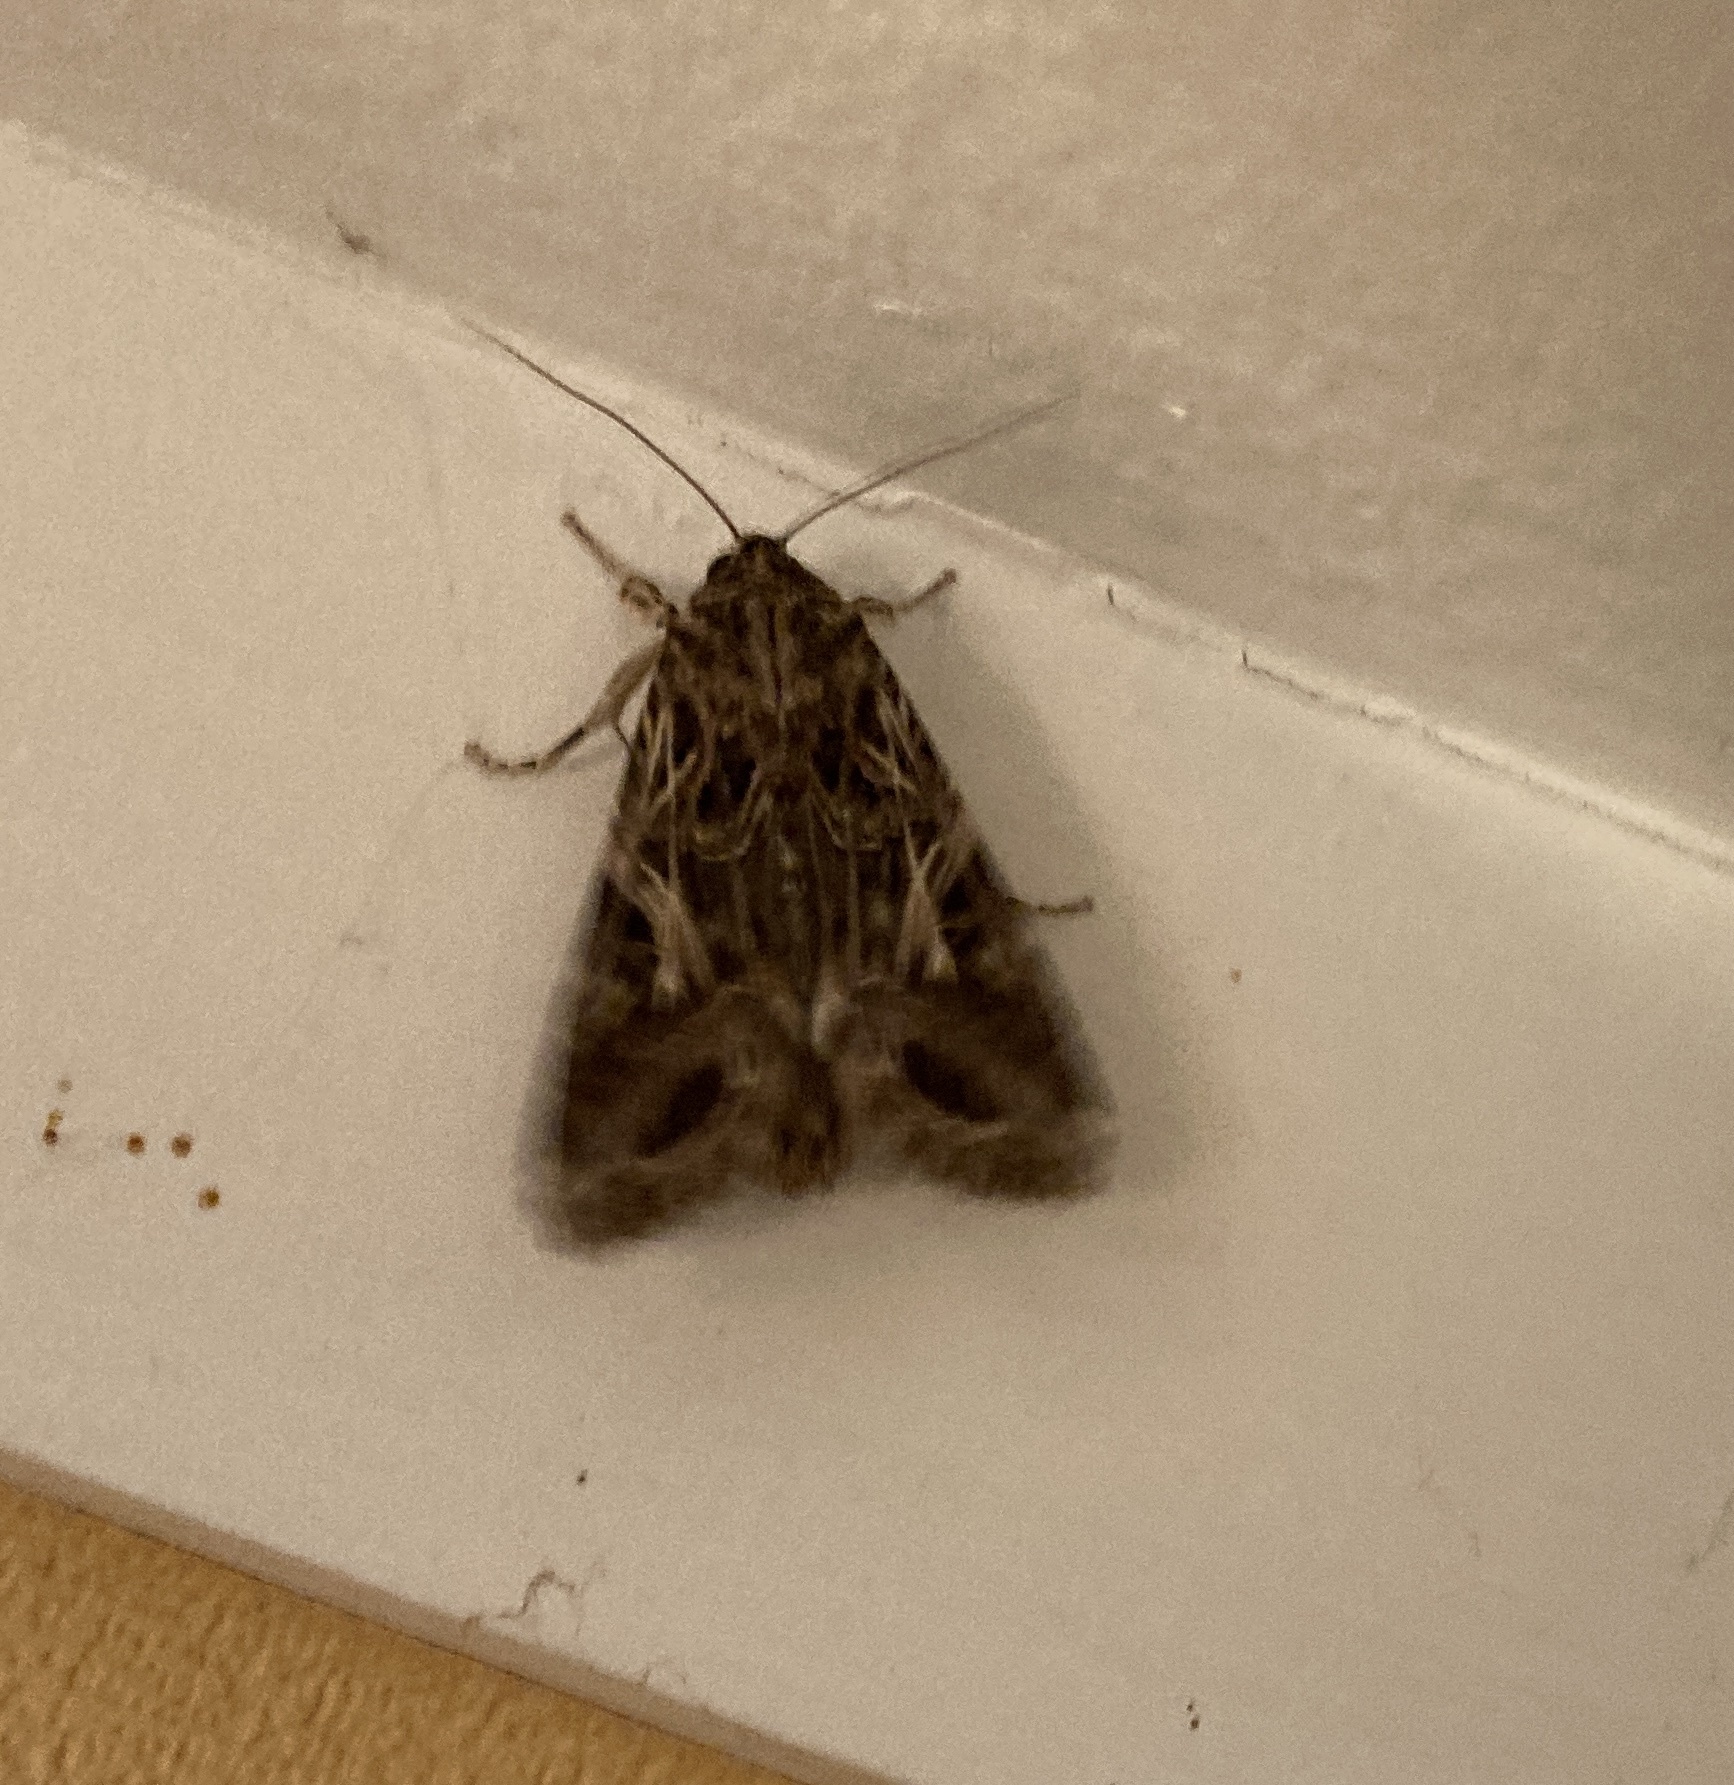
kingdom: Animalia
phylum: Arthropoda
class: Insecta
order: Lepidoptera
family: Noctuidae
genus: Spodoptera
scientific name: Spodoptera litura
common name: Asian cotton leafworm
